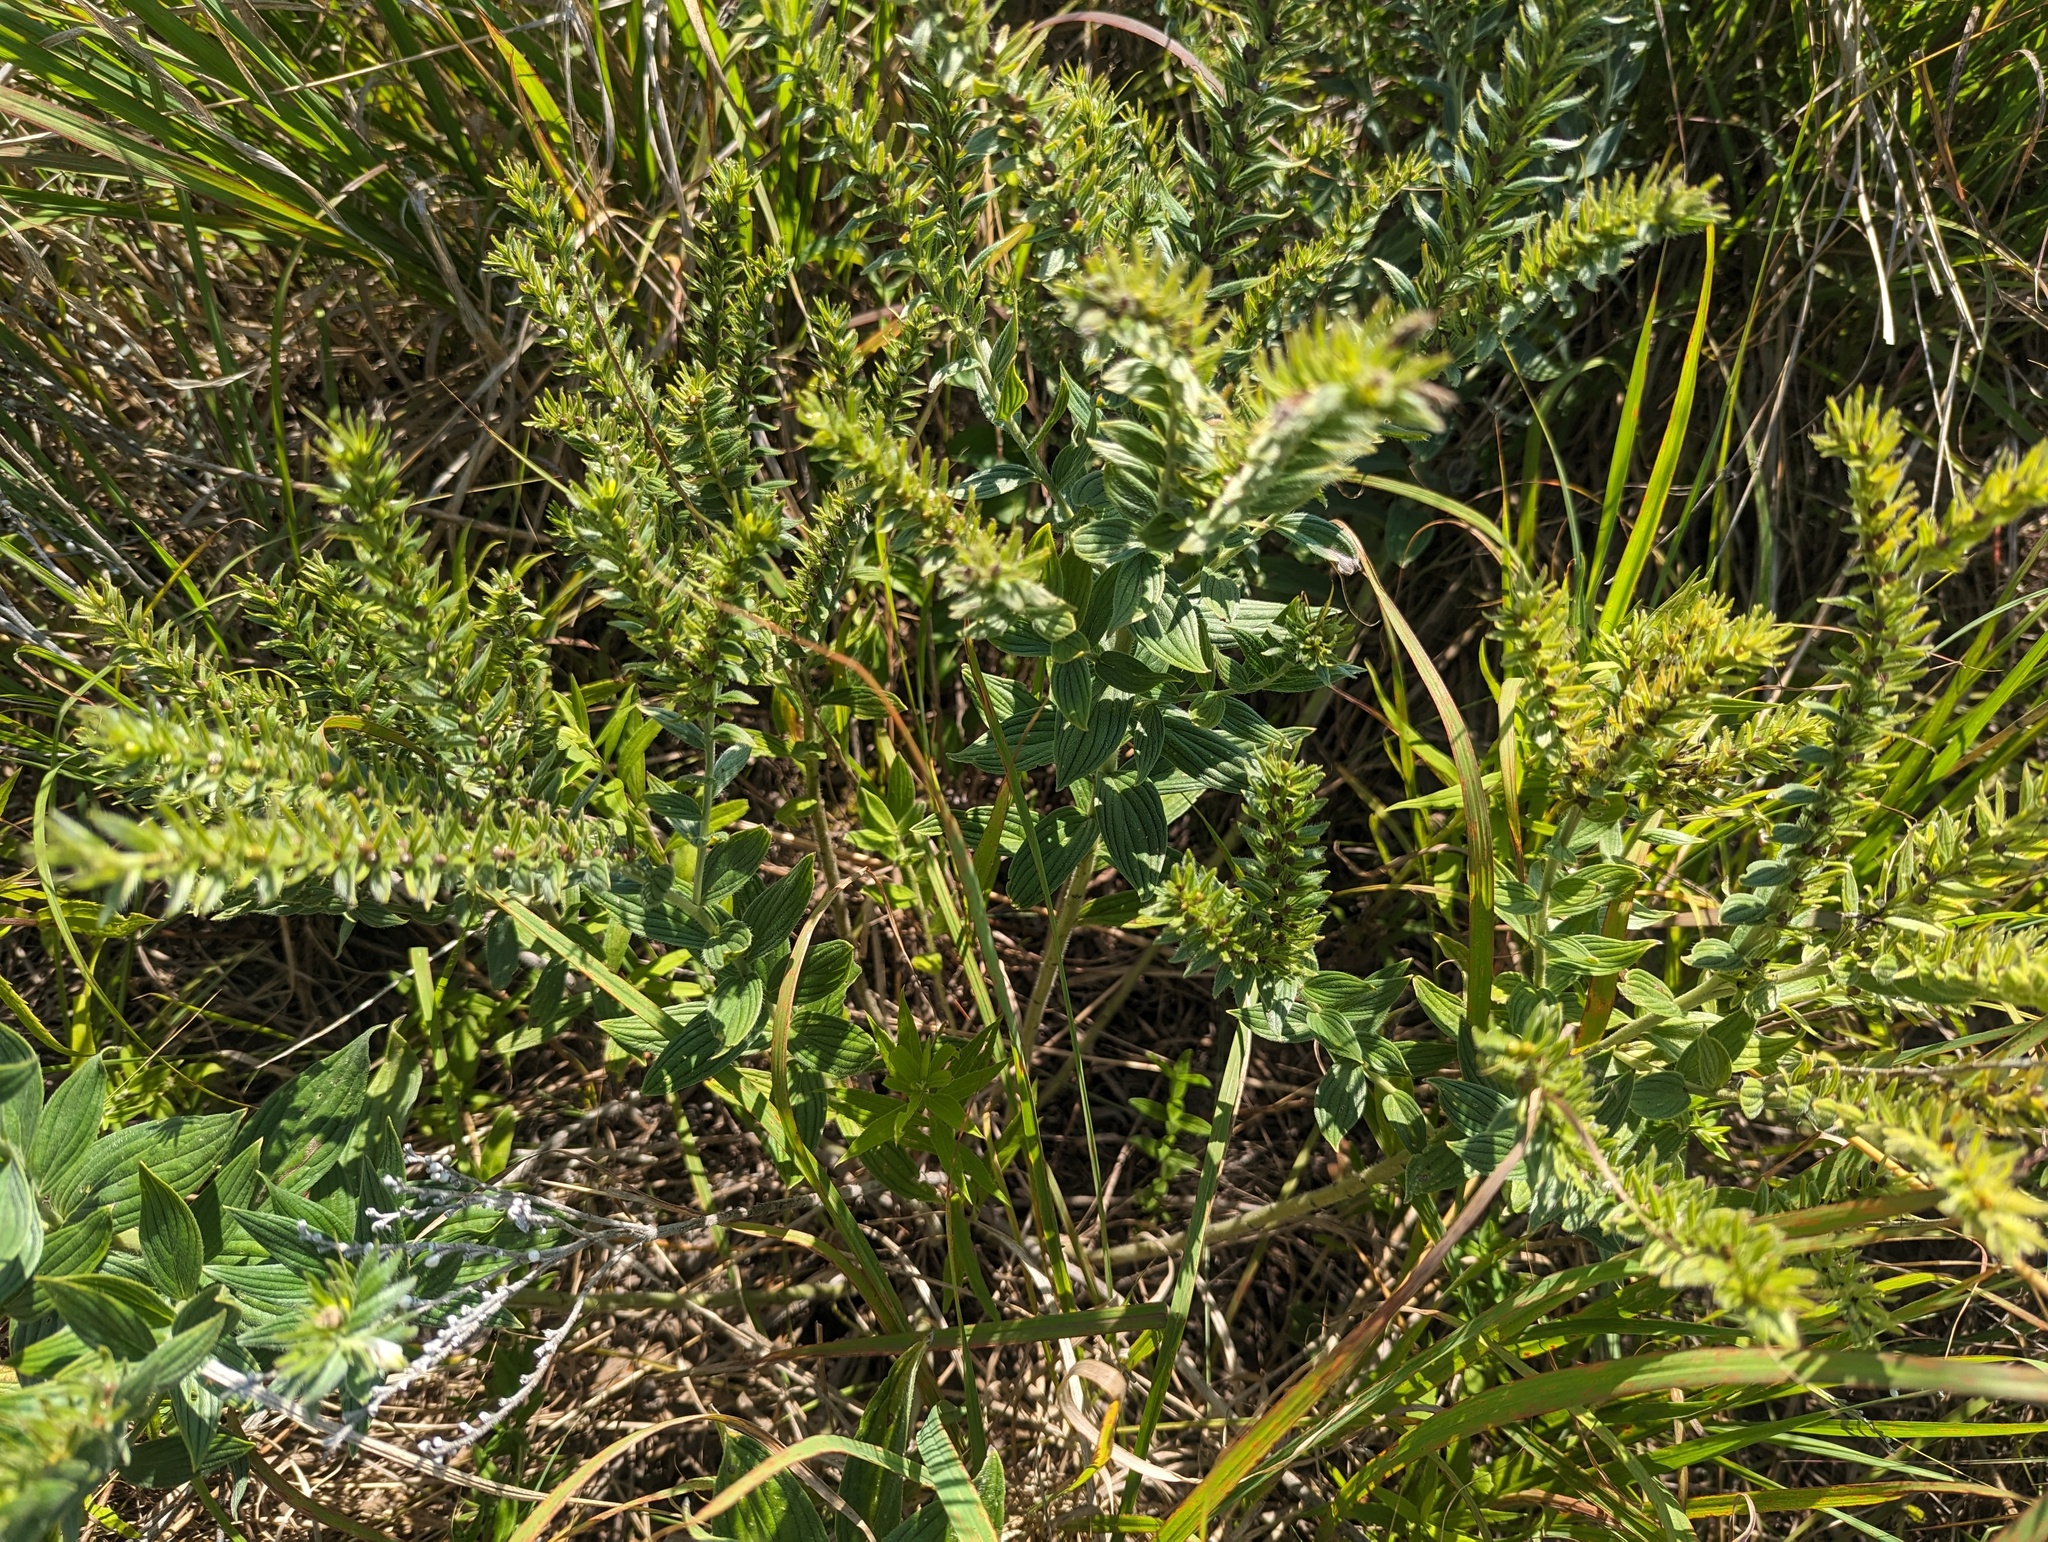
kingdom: Plantae
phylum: Tracheophyta
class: Magnoliopsida
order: Boraginales
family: Boraginaceae
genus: Lithospermum
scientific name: Lithospermum parviflorum
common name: Hairy false gromwell
